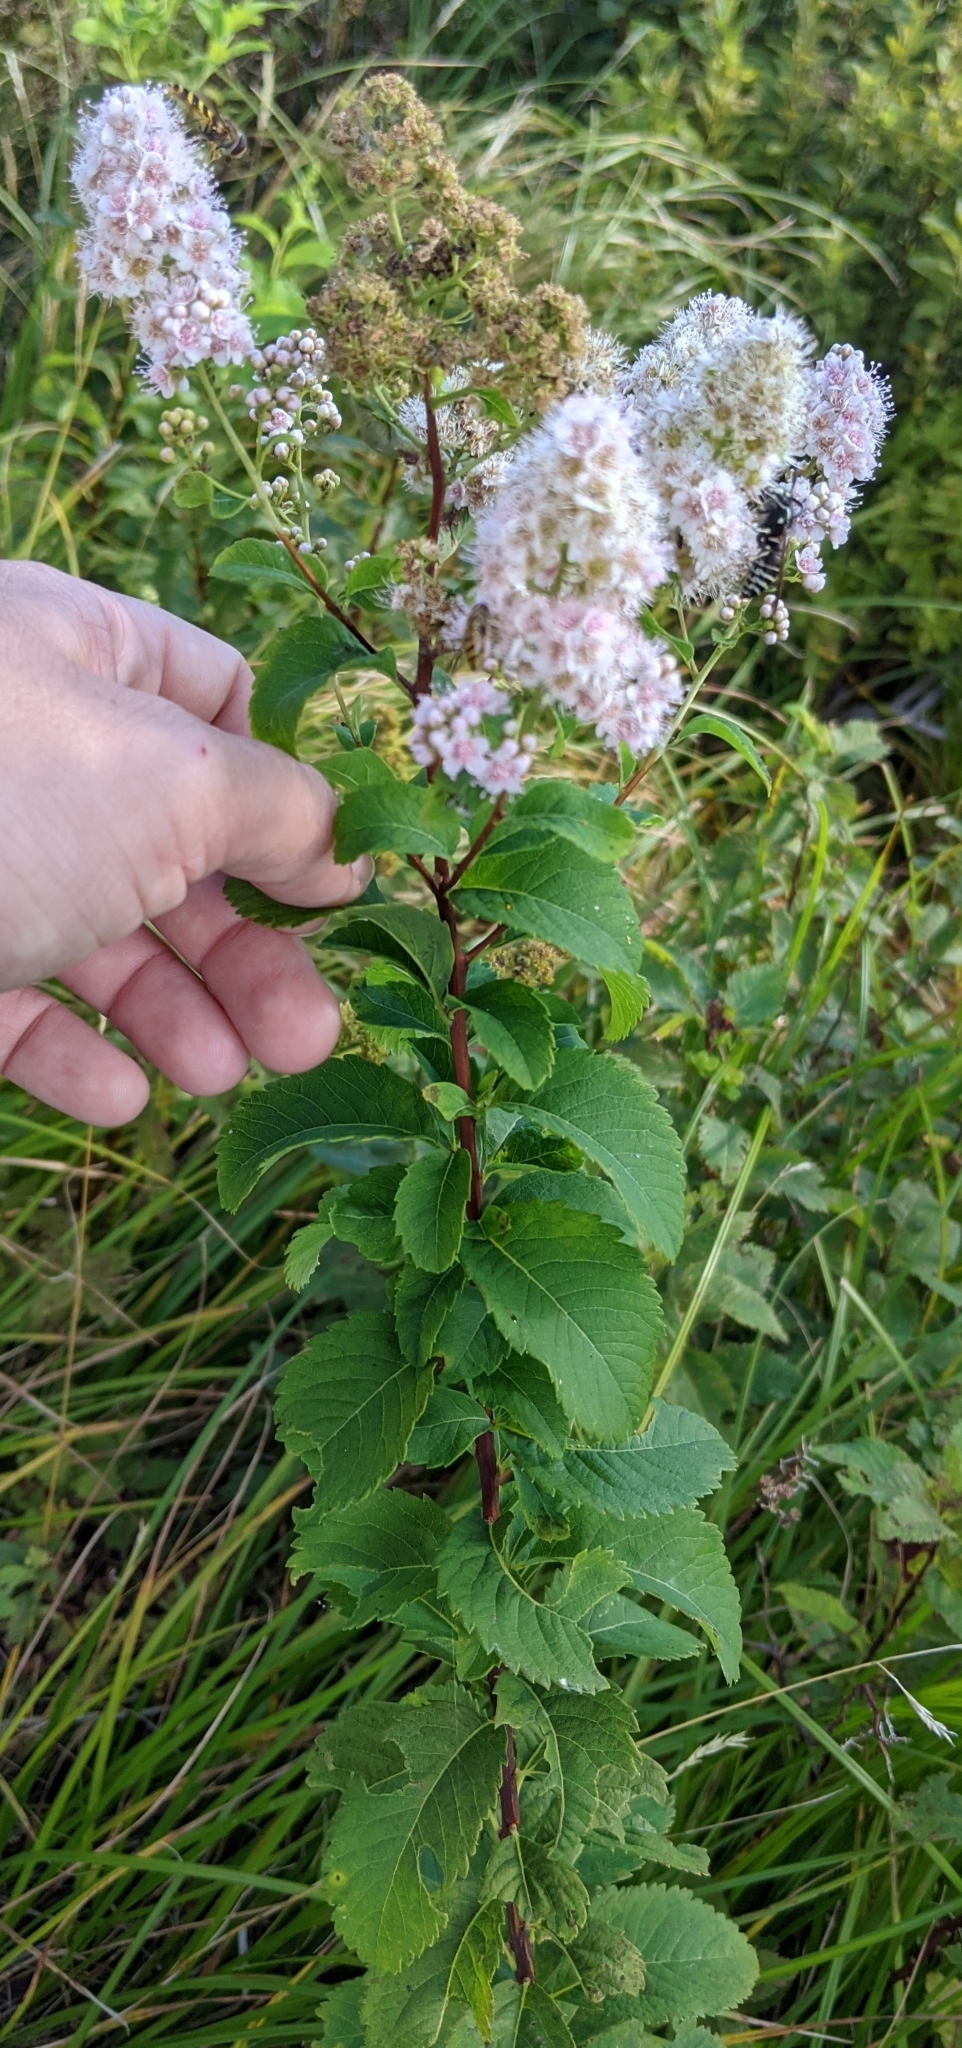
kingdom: Plantae
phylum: Tracheophyta
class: Magnoliopsida
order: Rosales
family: Rosaceae
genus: Spiraea
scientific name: Spiraea alba
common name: Pale bridewort
